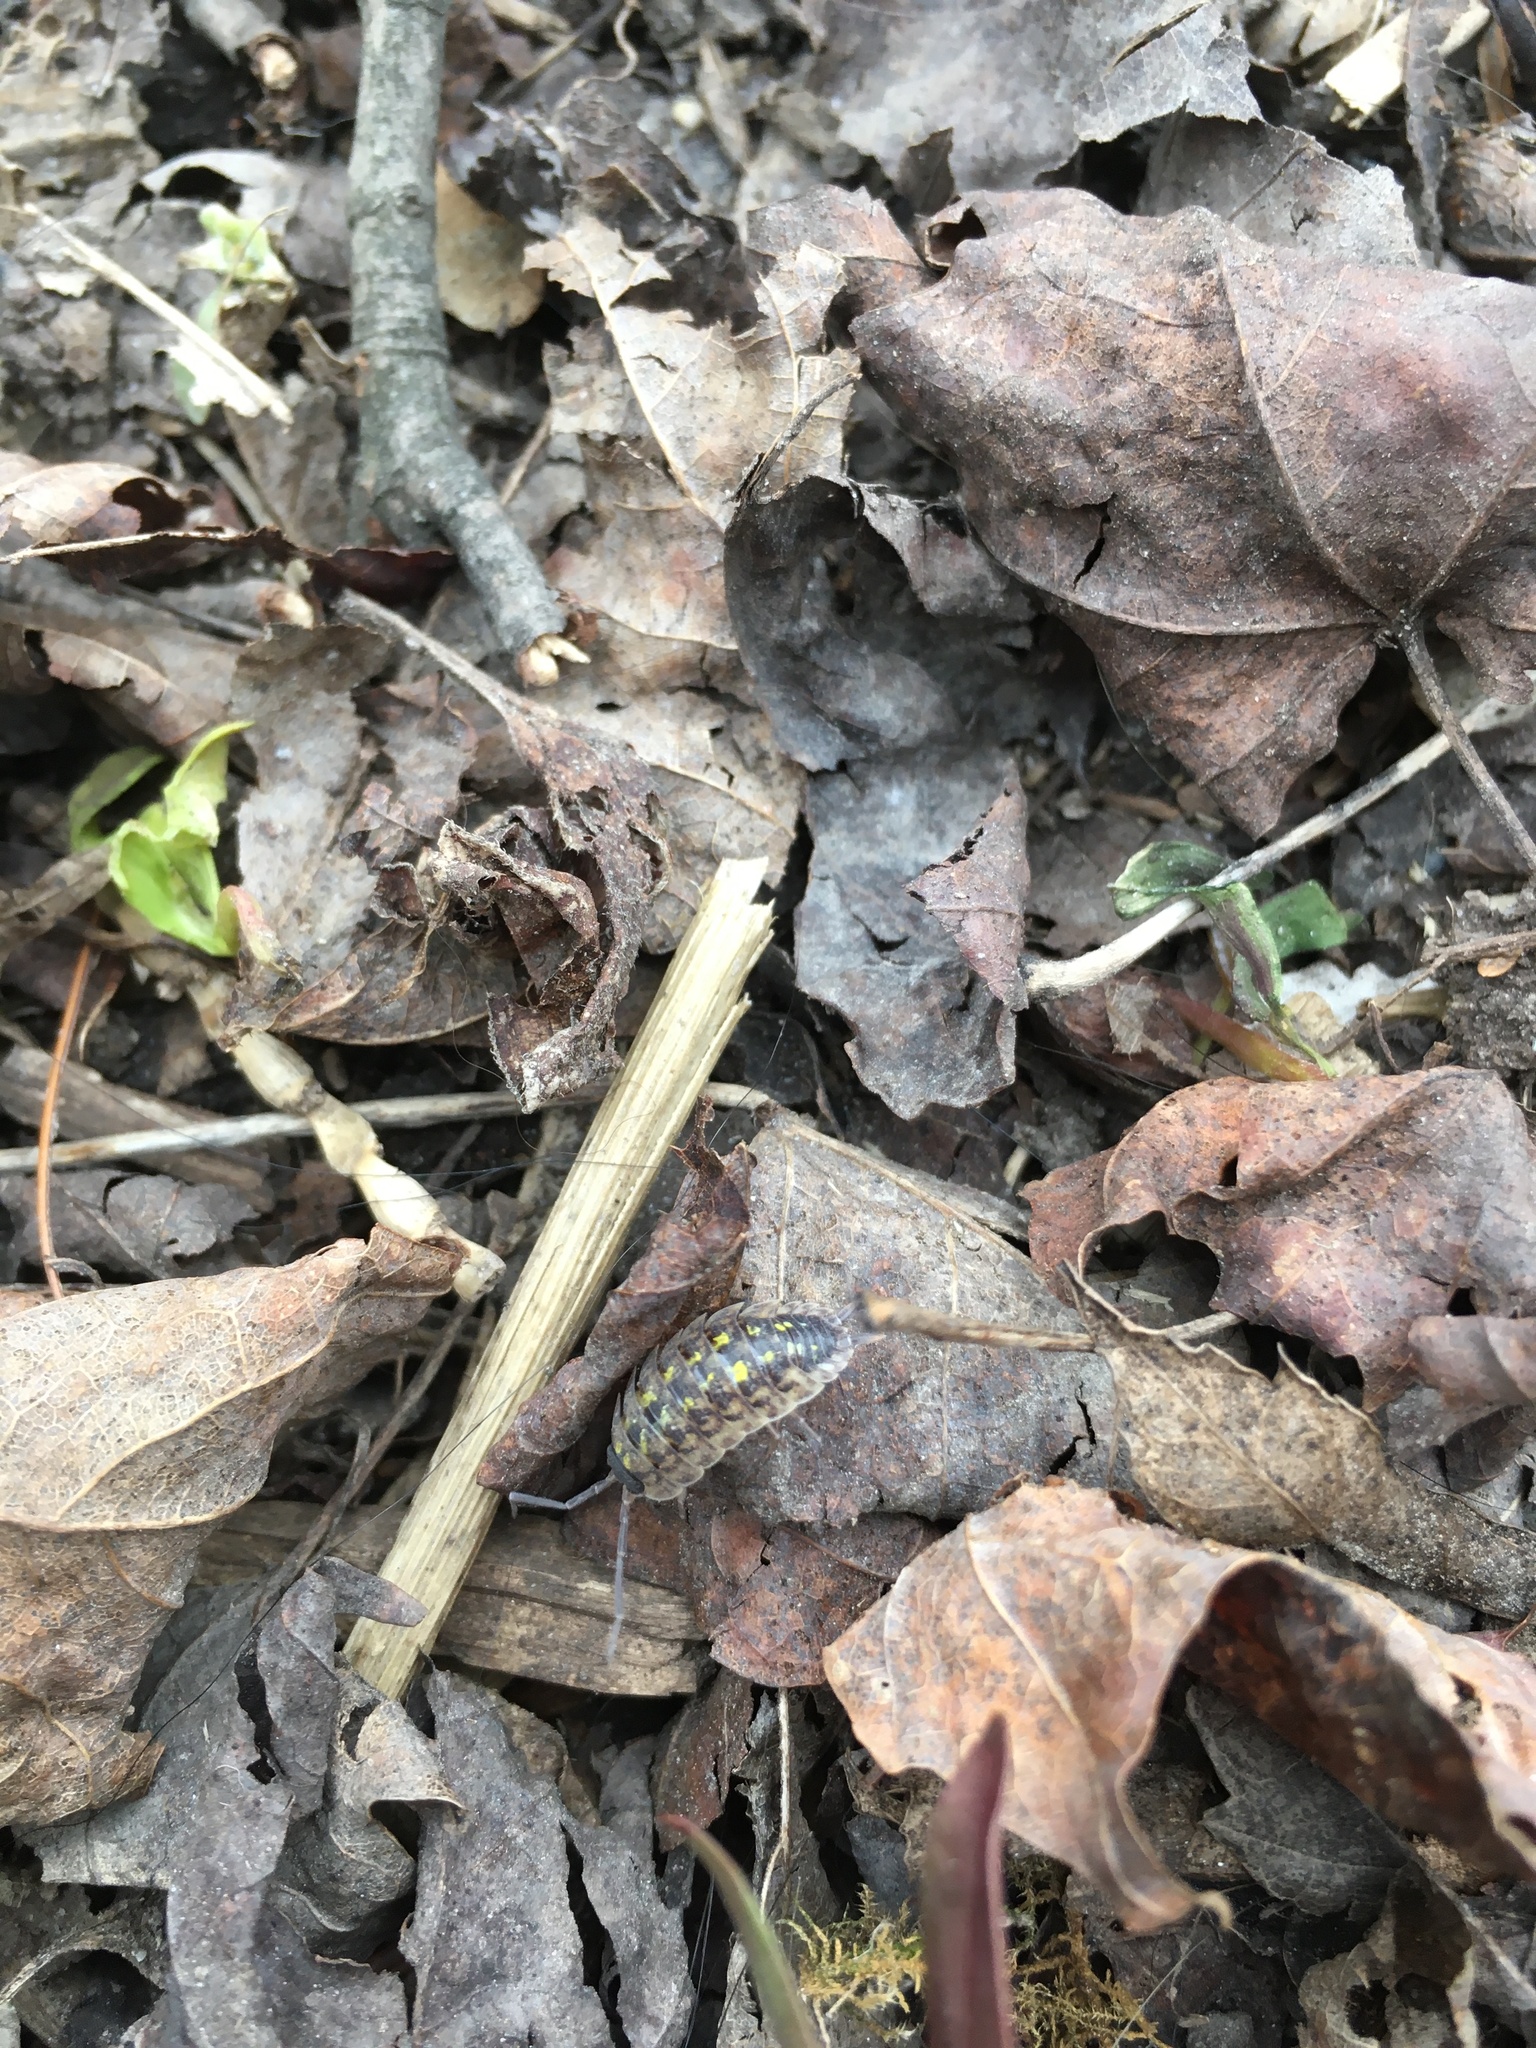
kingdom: Animalia
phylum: Arthropoda
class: Malacostraca
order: Isopoda
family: Porcellionidae
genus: Porcellio
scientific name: Porcellio spinicornis
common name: Painted woodlouse
